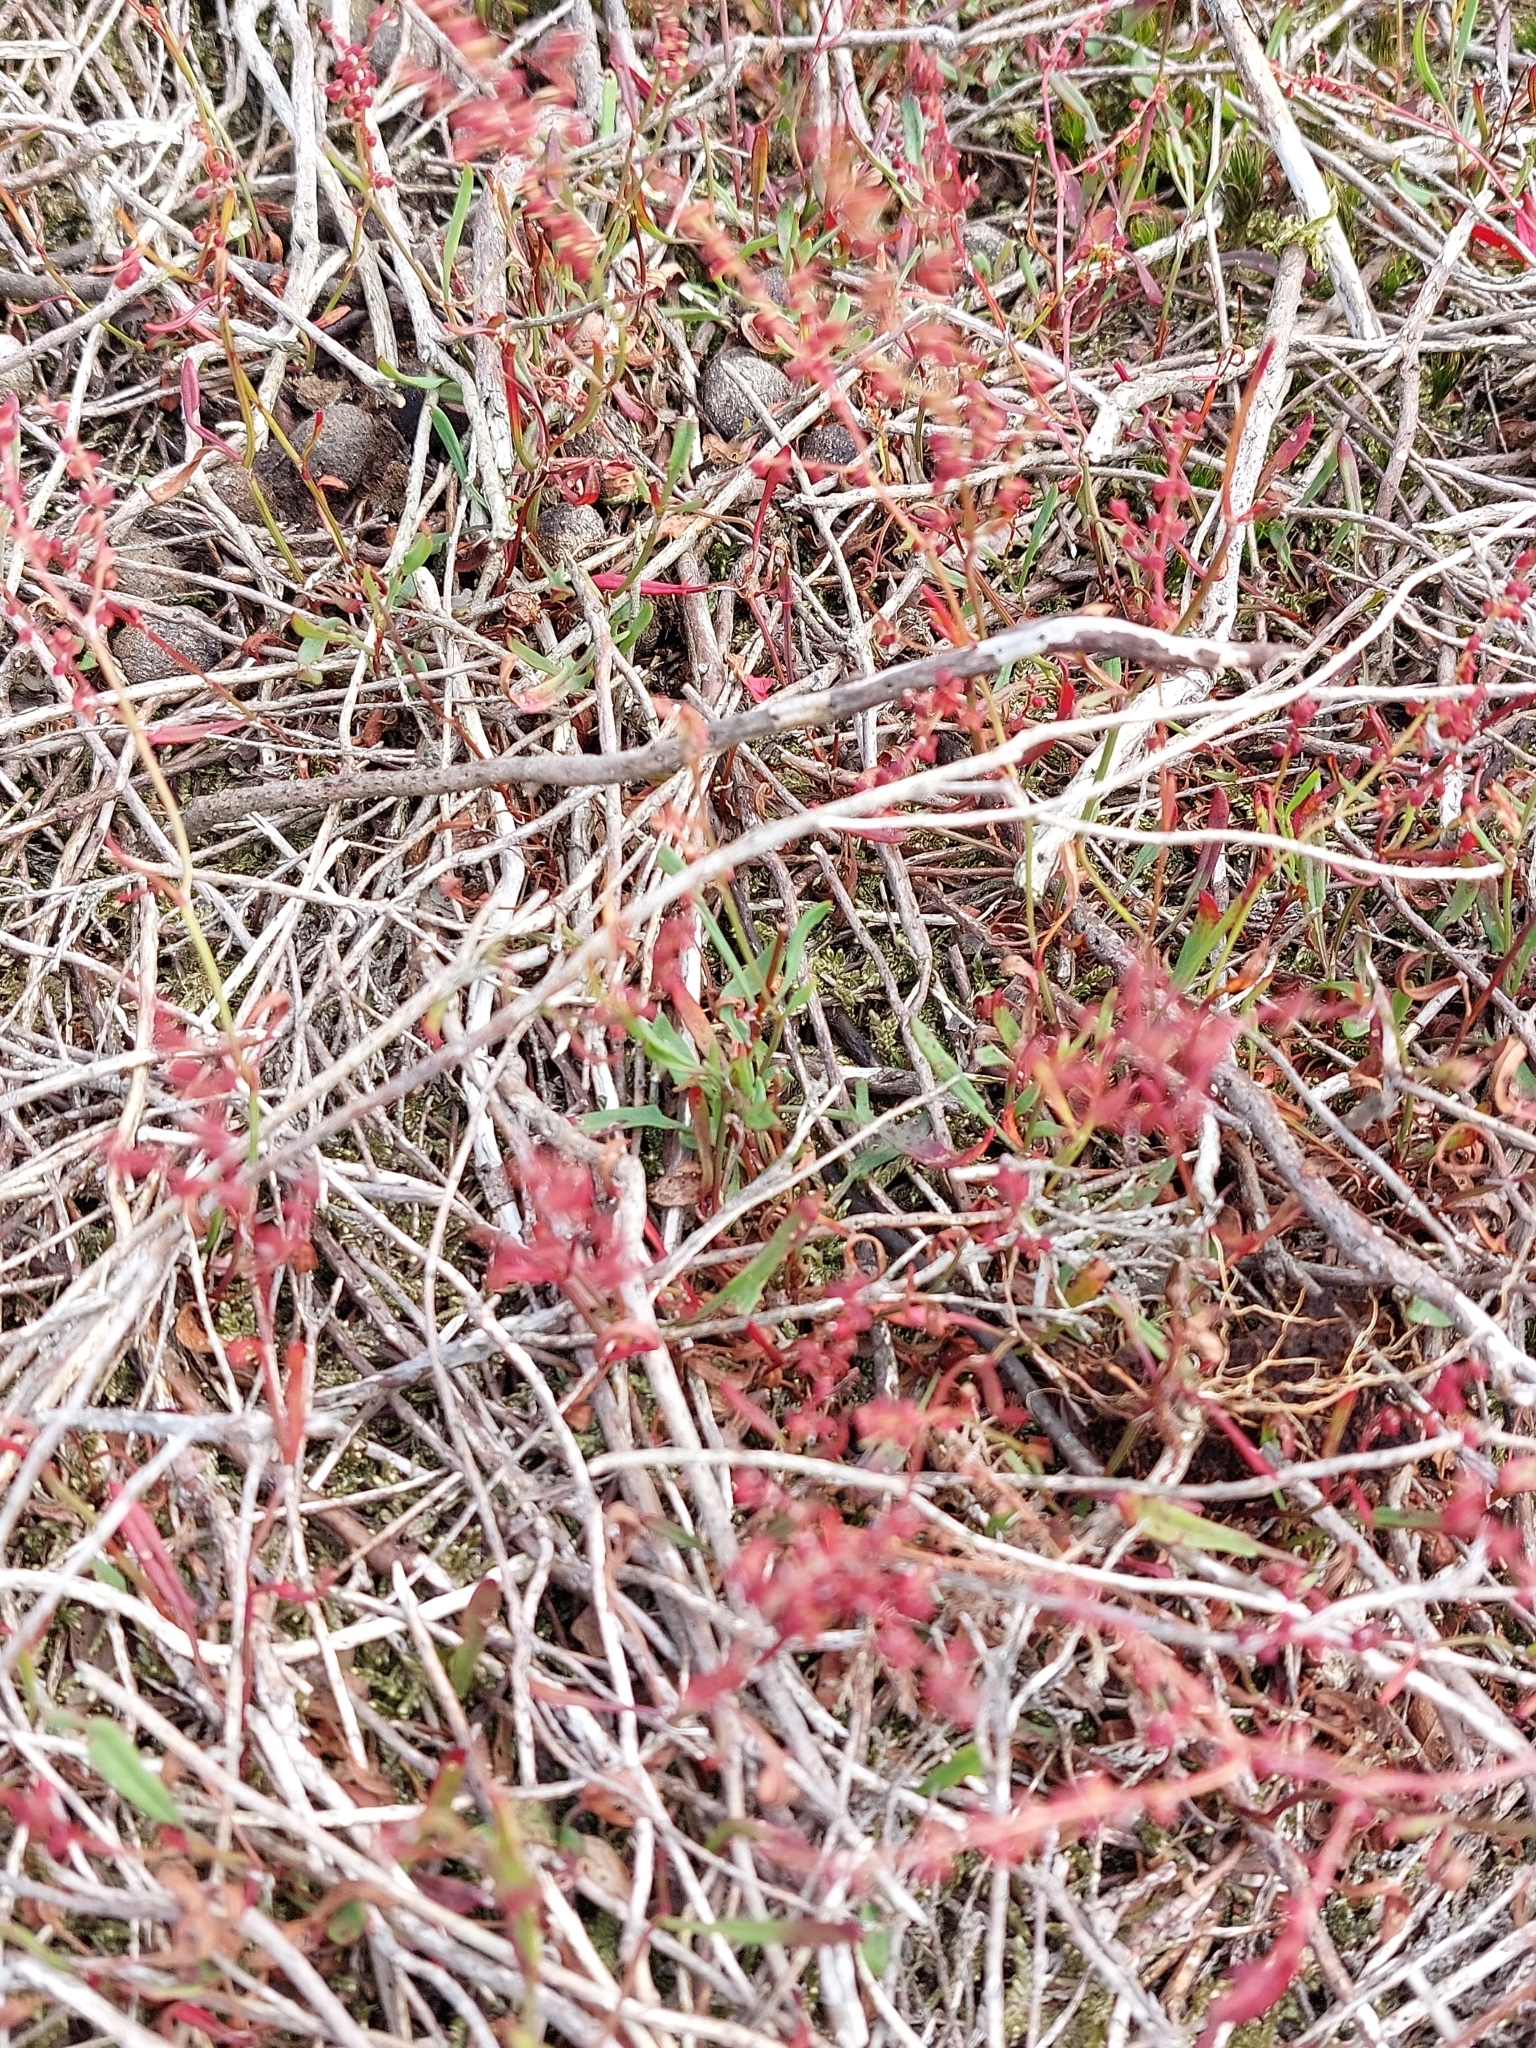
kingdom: Plantae
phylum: Tracheophyta
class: Magnoliopsida
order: Caryophyllales
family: Polygonaceae
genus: Rumex
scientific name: Rumex acetosella
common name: Common sheep sorrel
